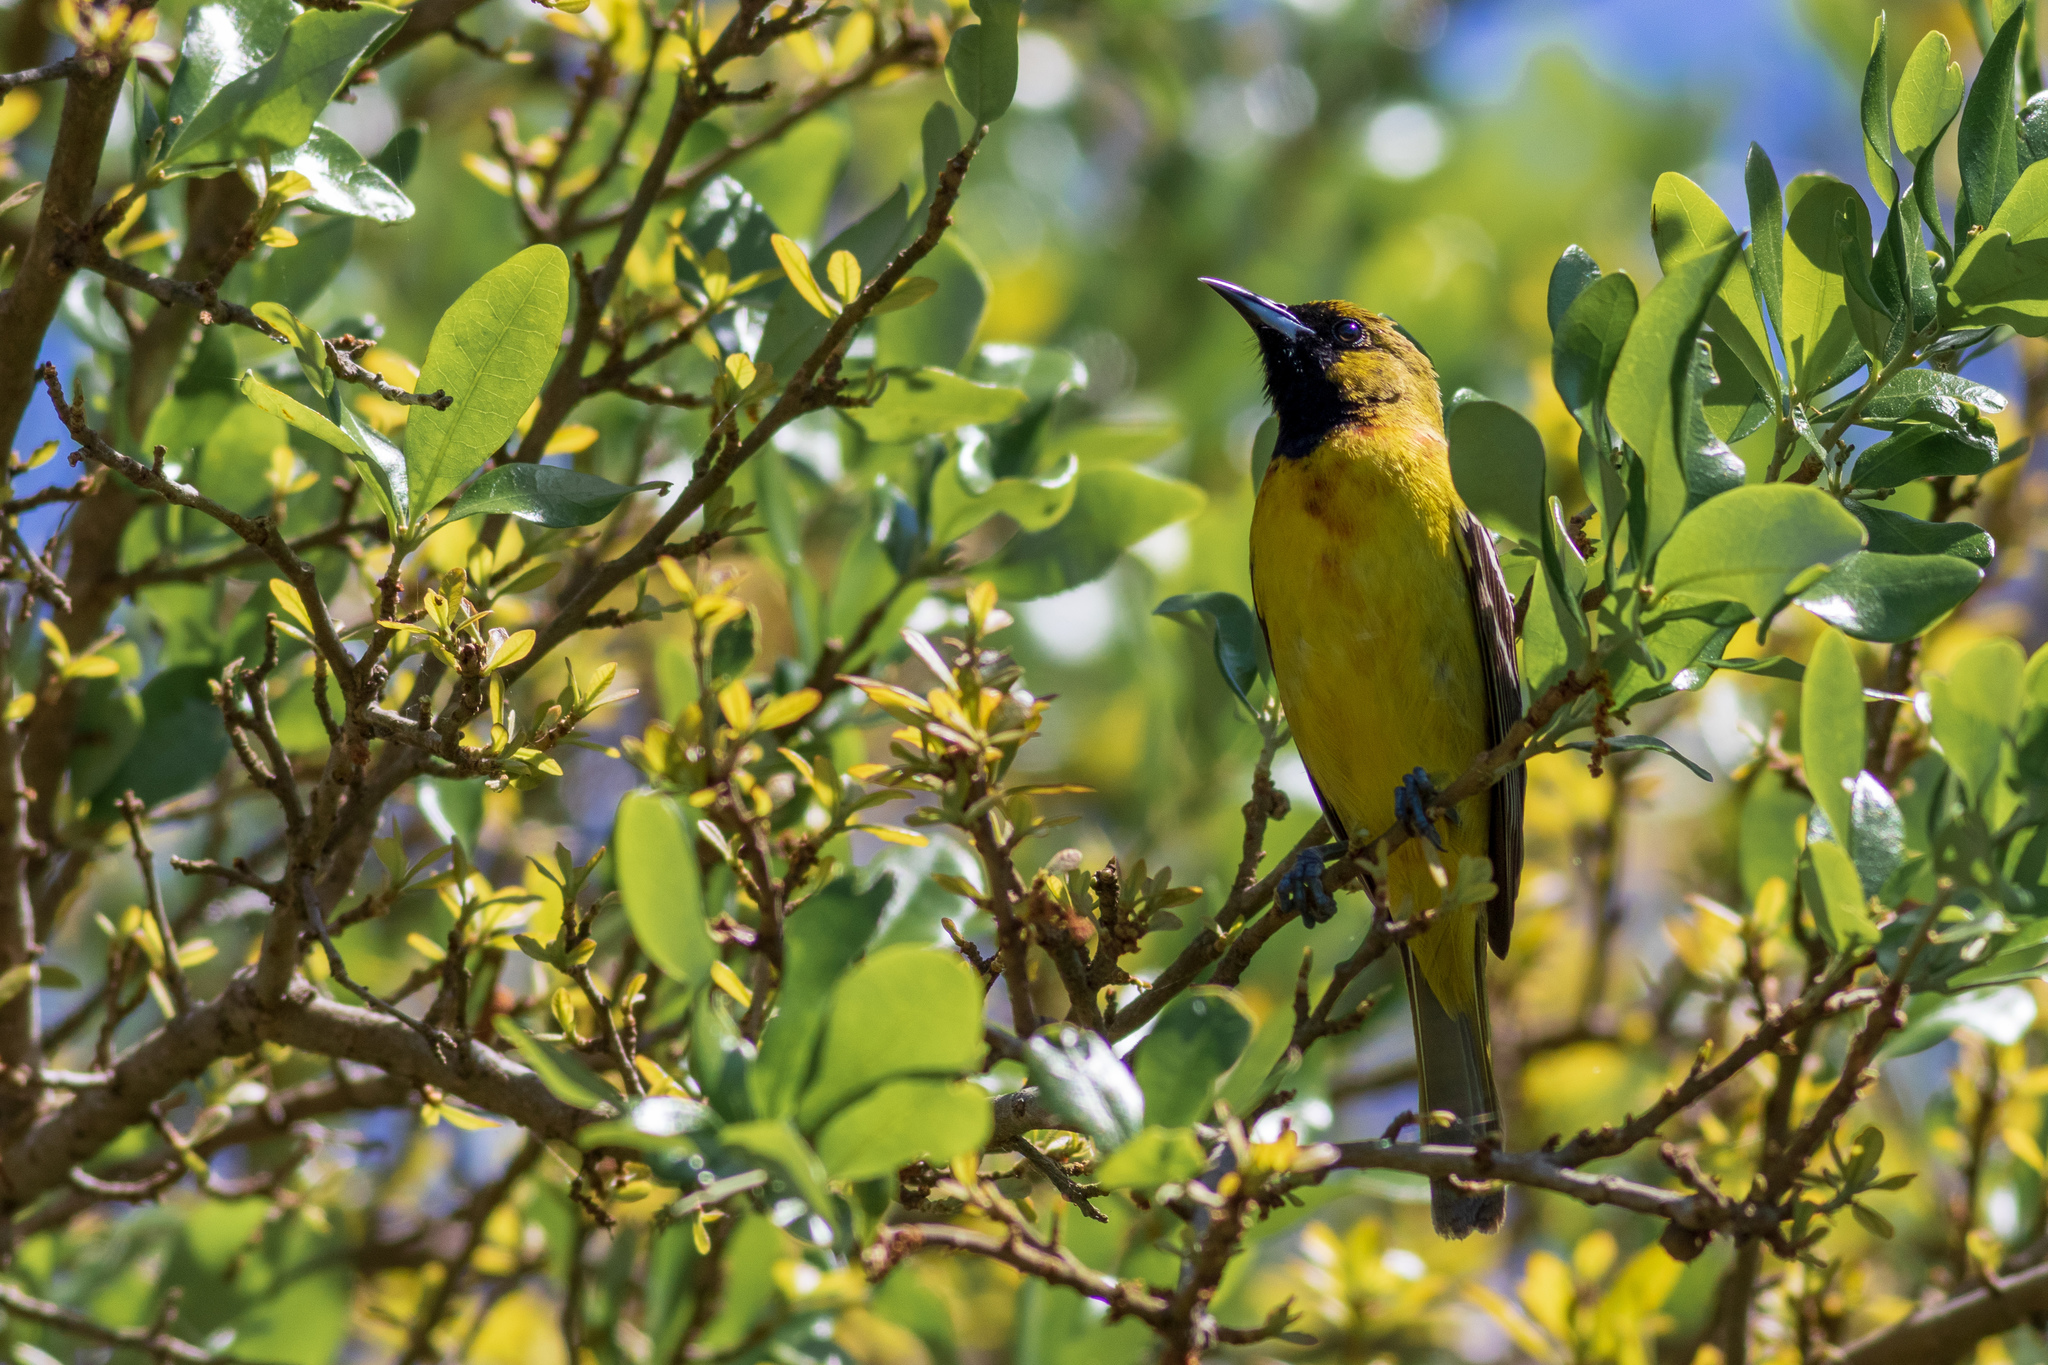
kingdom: Animalia
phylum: Chordata
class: Aves
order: Passeriformes
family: Icteridae
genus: Icterus
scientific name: Icterus spurius
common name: Orchard oriole
